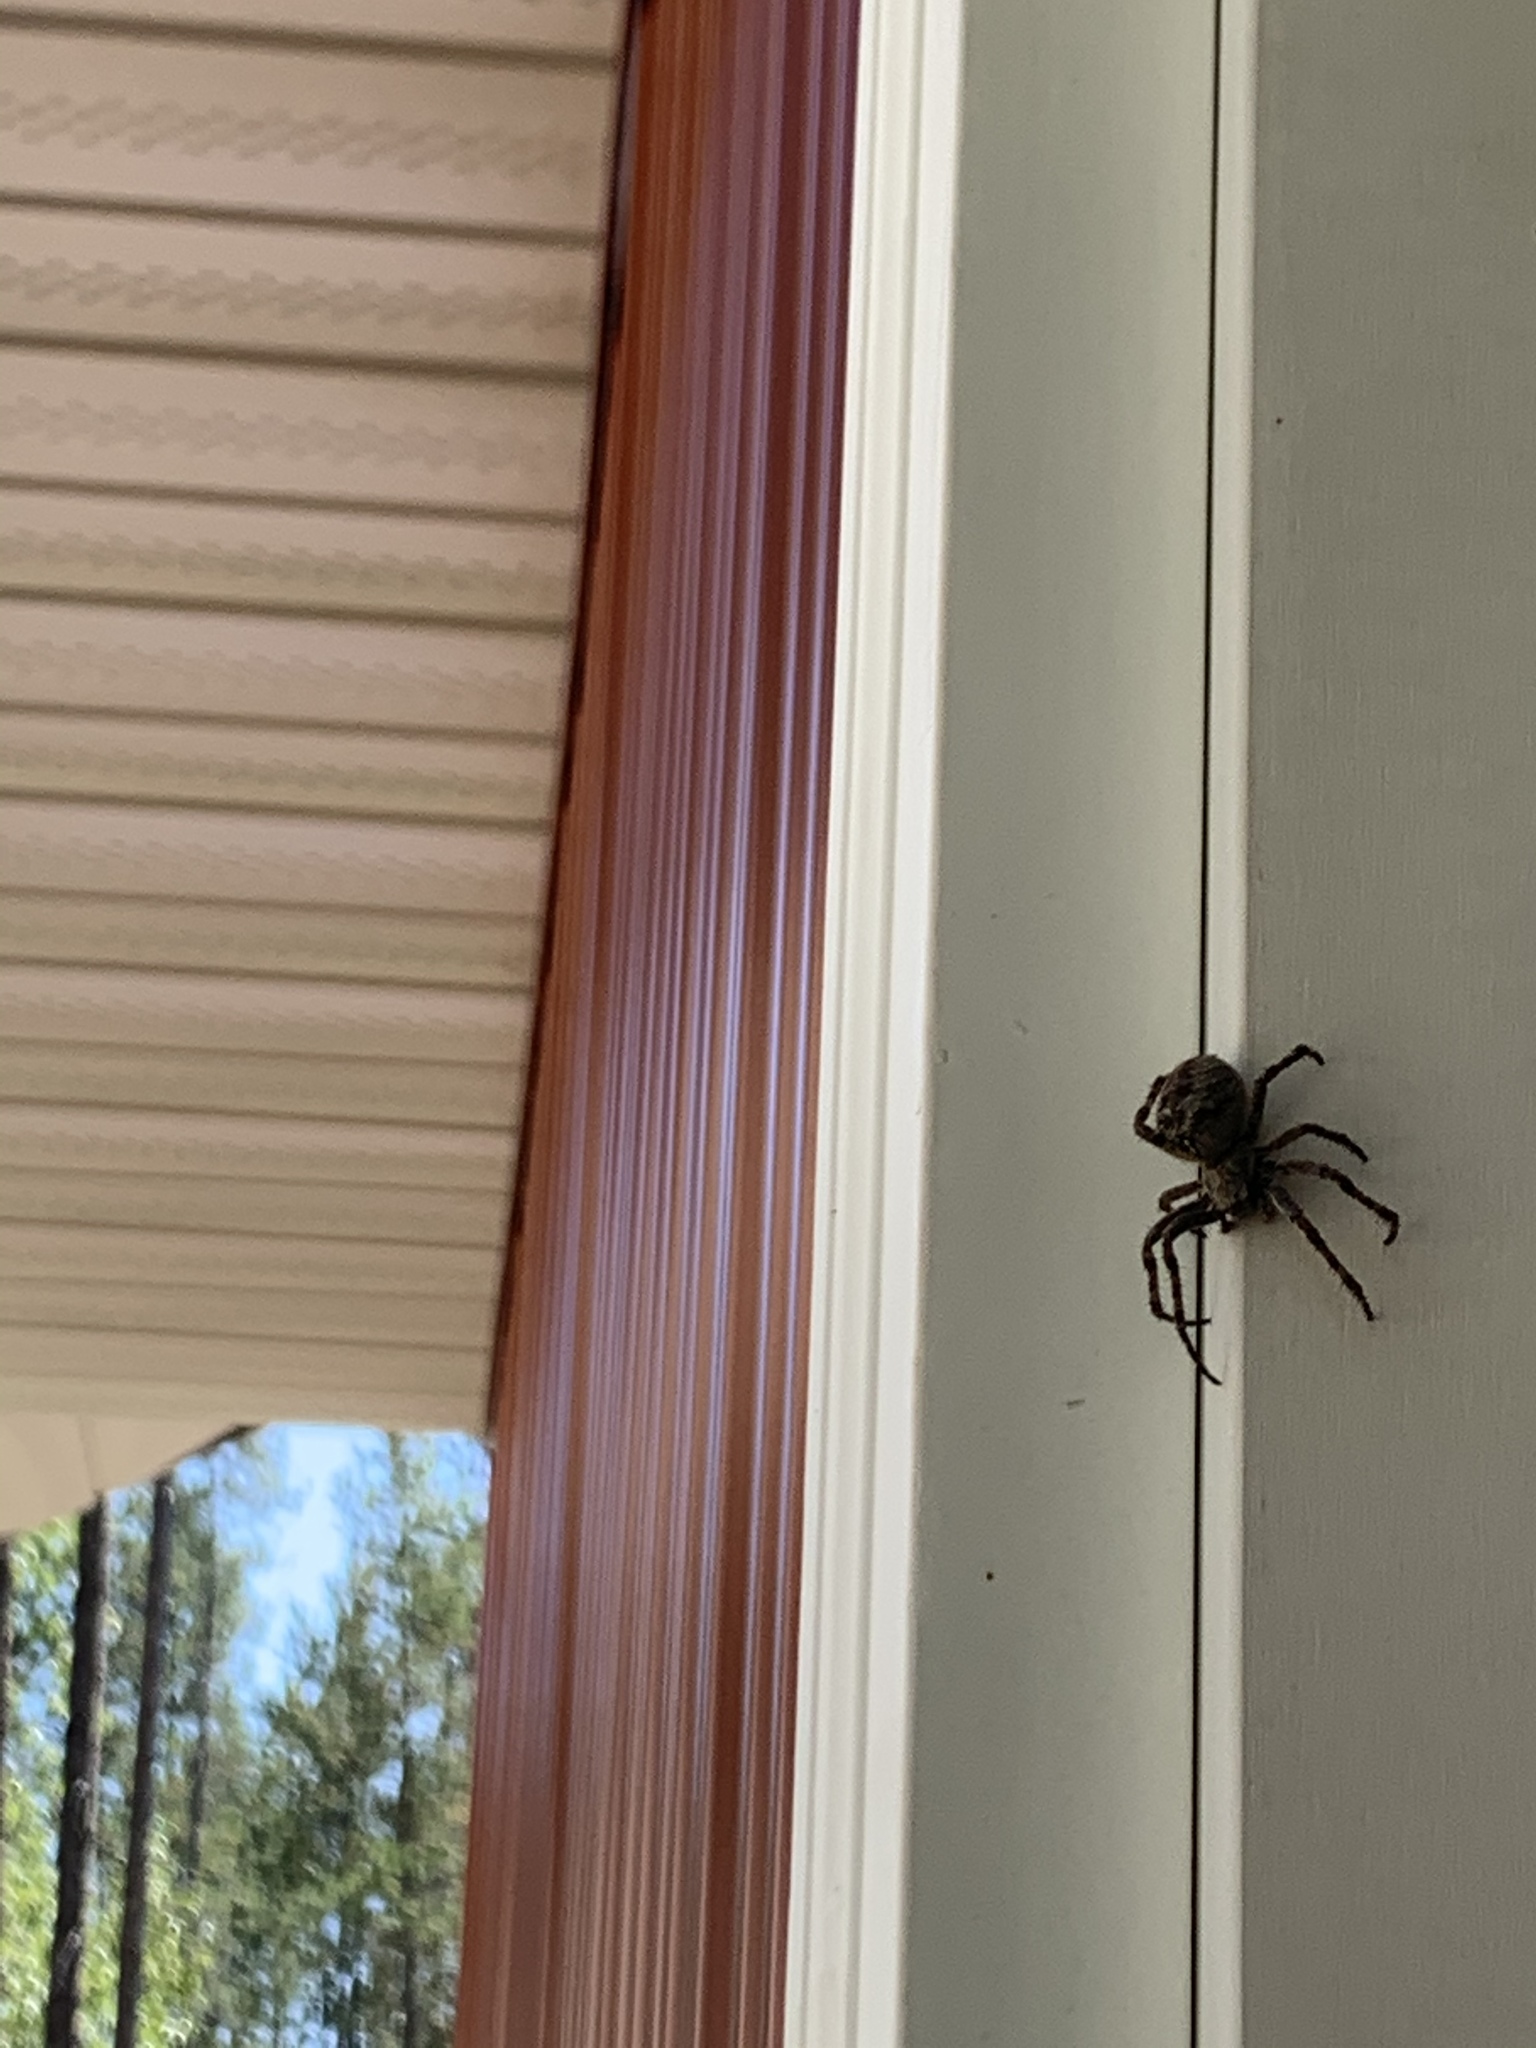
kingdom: Animalia
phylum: Arthropoda
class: Arachnida
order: Araneae
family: Araneidae
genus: Araneus
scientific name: Araneus saevus
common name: Fierce orbweaver
